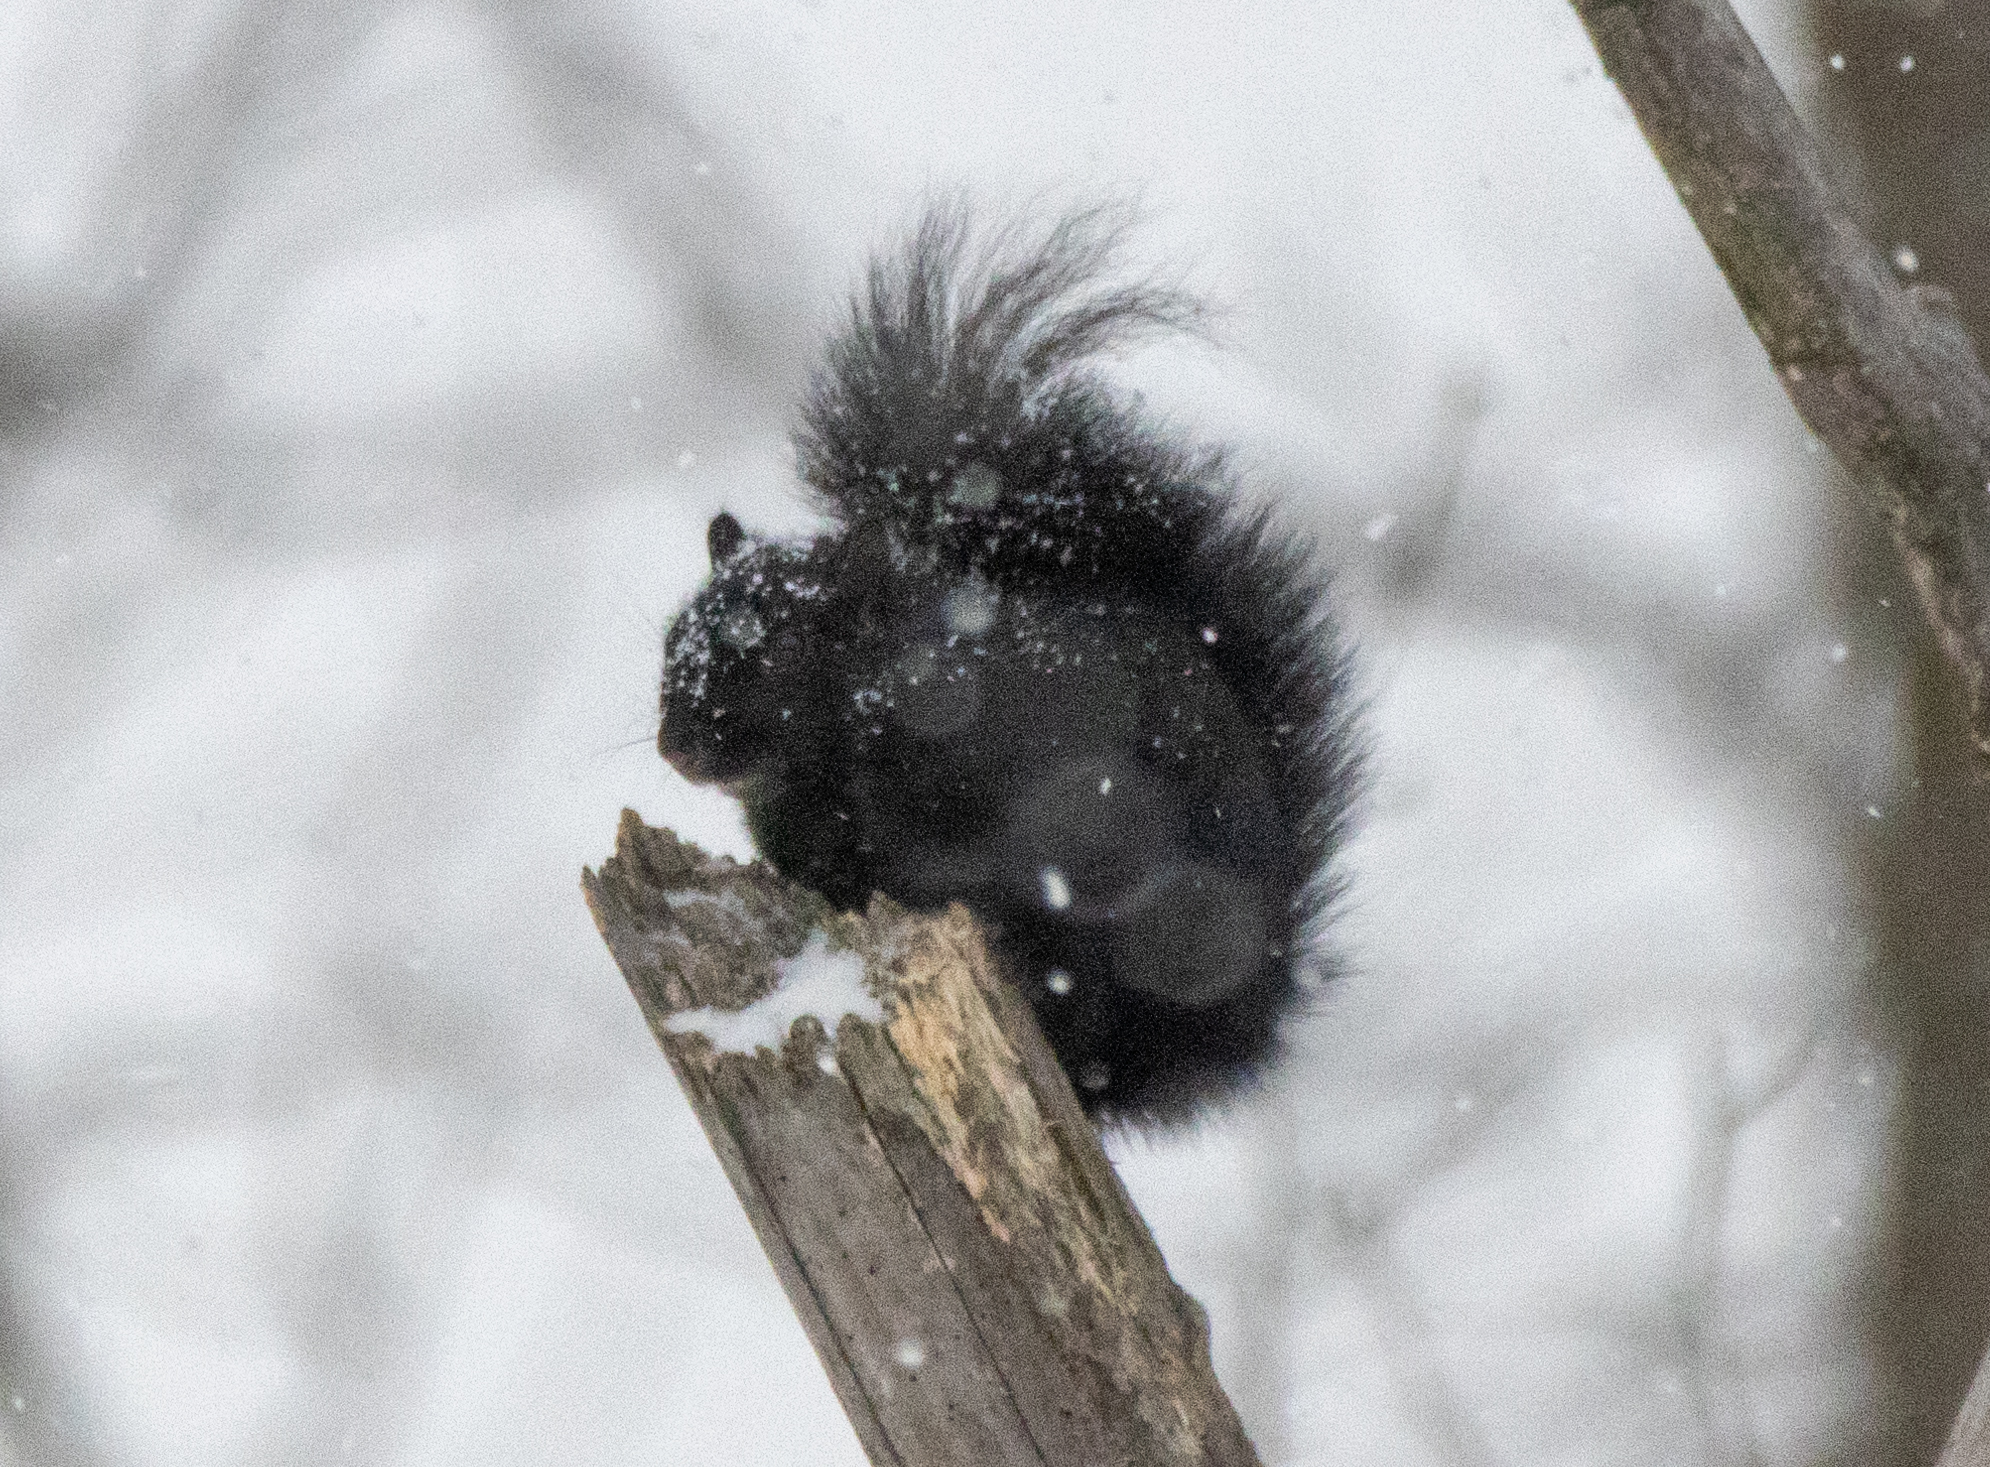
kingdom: Animalia
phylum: Chordata
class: Mammalia
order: Rodentia
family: Sciuridae
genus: Sciurus
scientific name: Sciurus carolinensis
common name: Eastern gray squirrel
